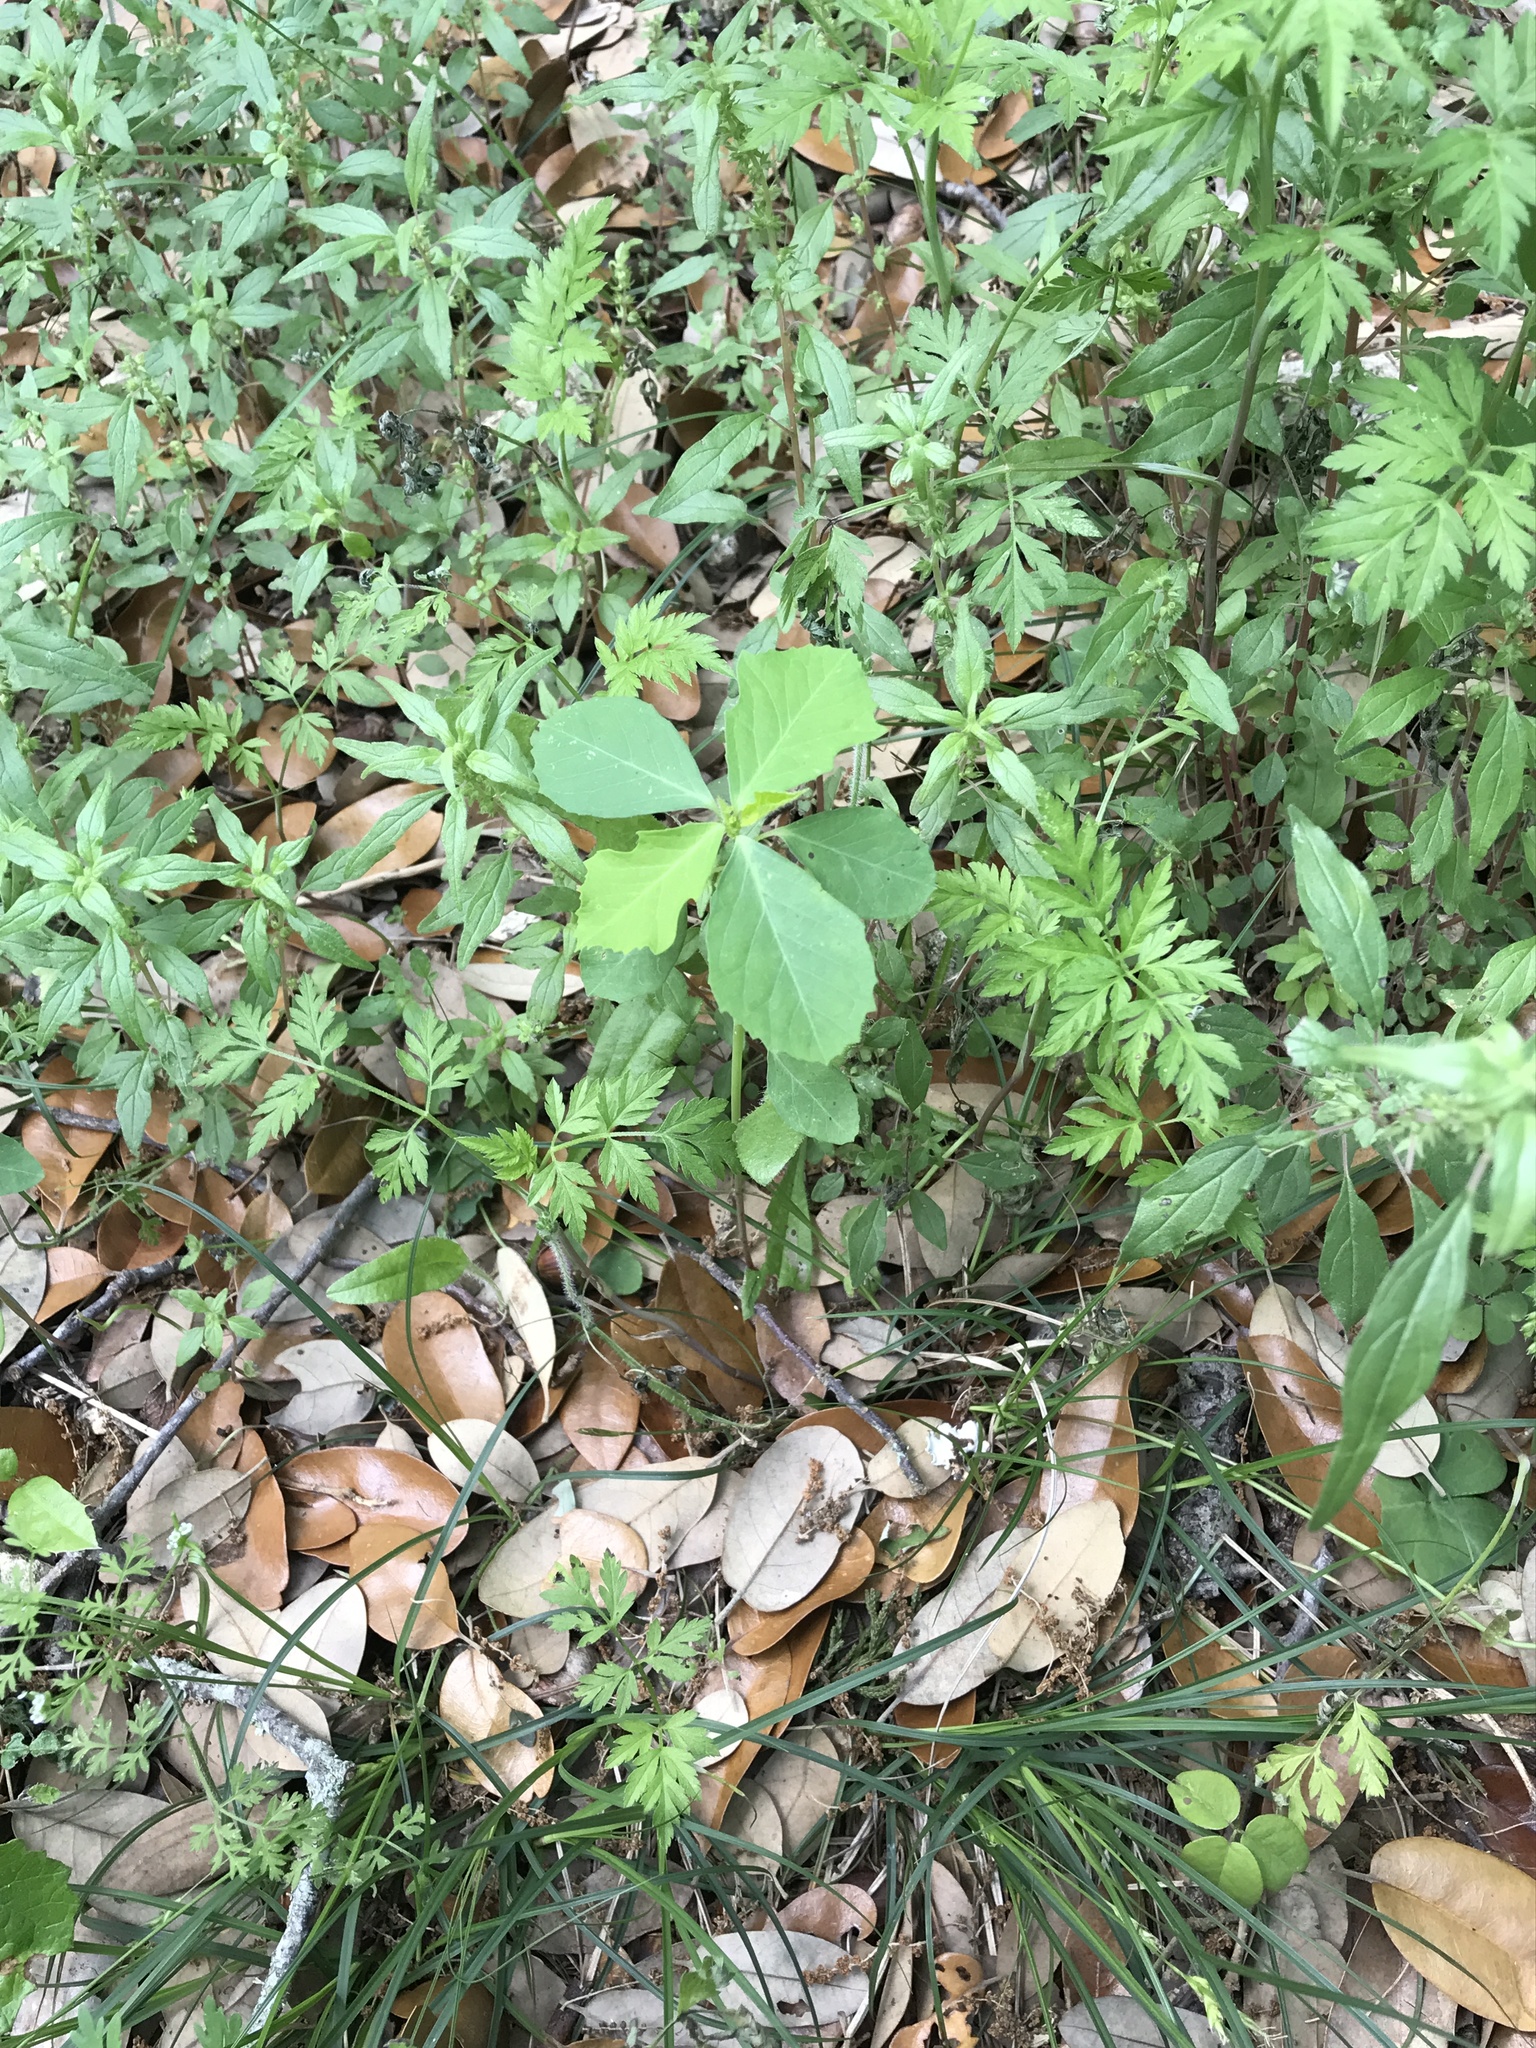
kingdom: Plantae
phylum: Tracheophyta
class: Magnoliopsida
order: Malpighiales
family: Euphorbiaceae
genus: Euphorbia
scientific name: Euphorbia heterophylla
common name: Mexican fireplant
